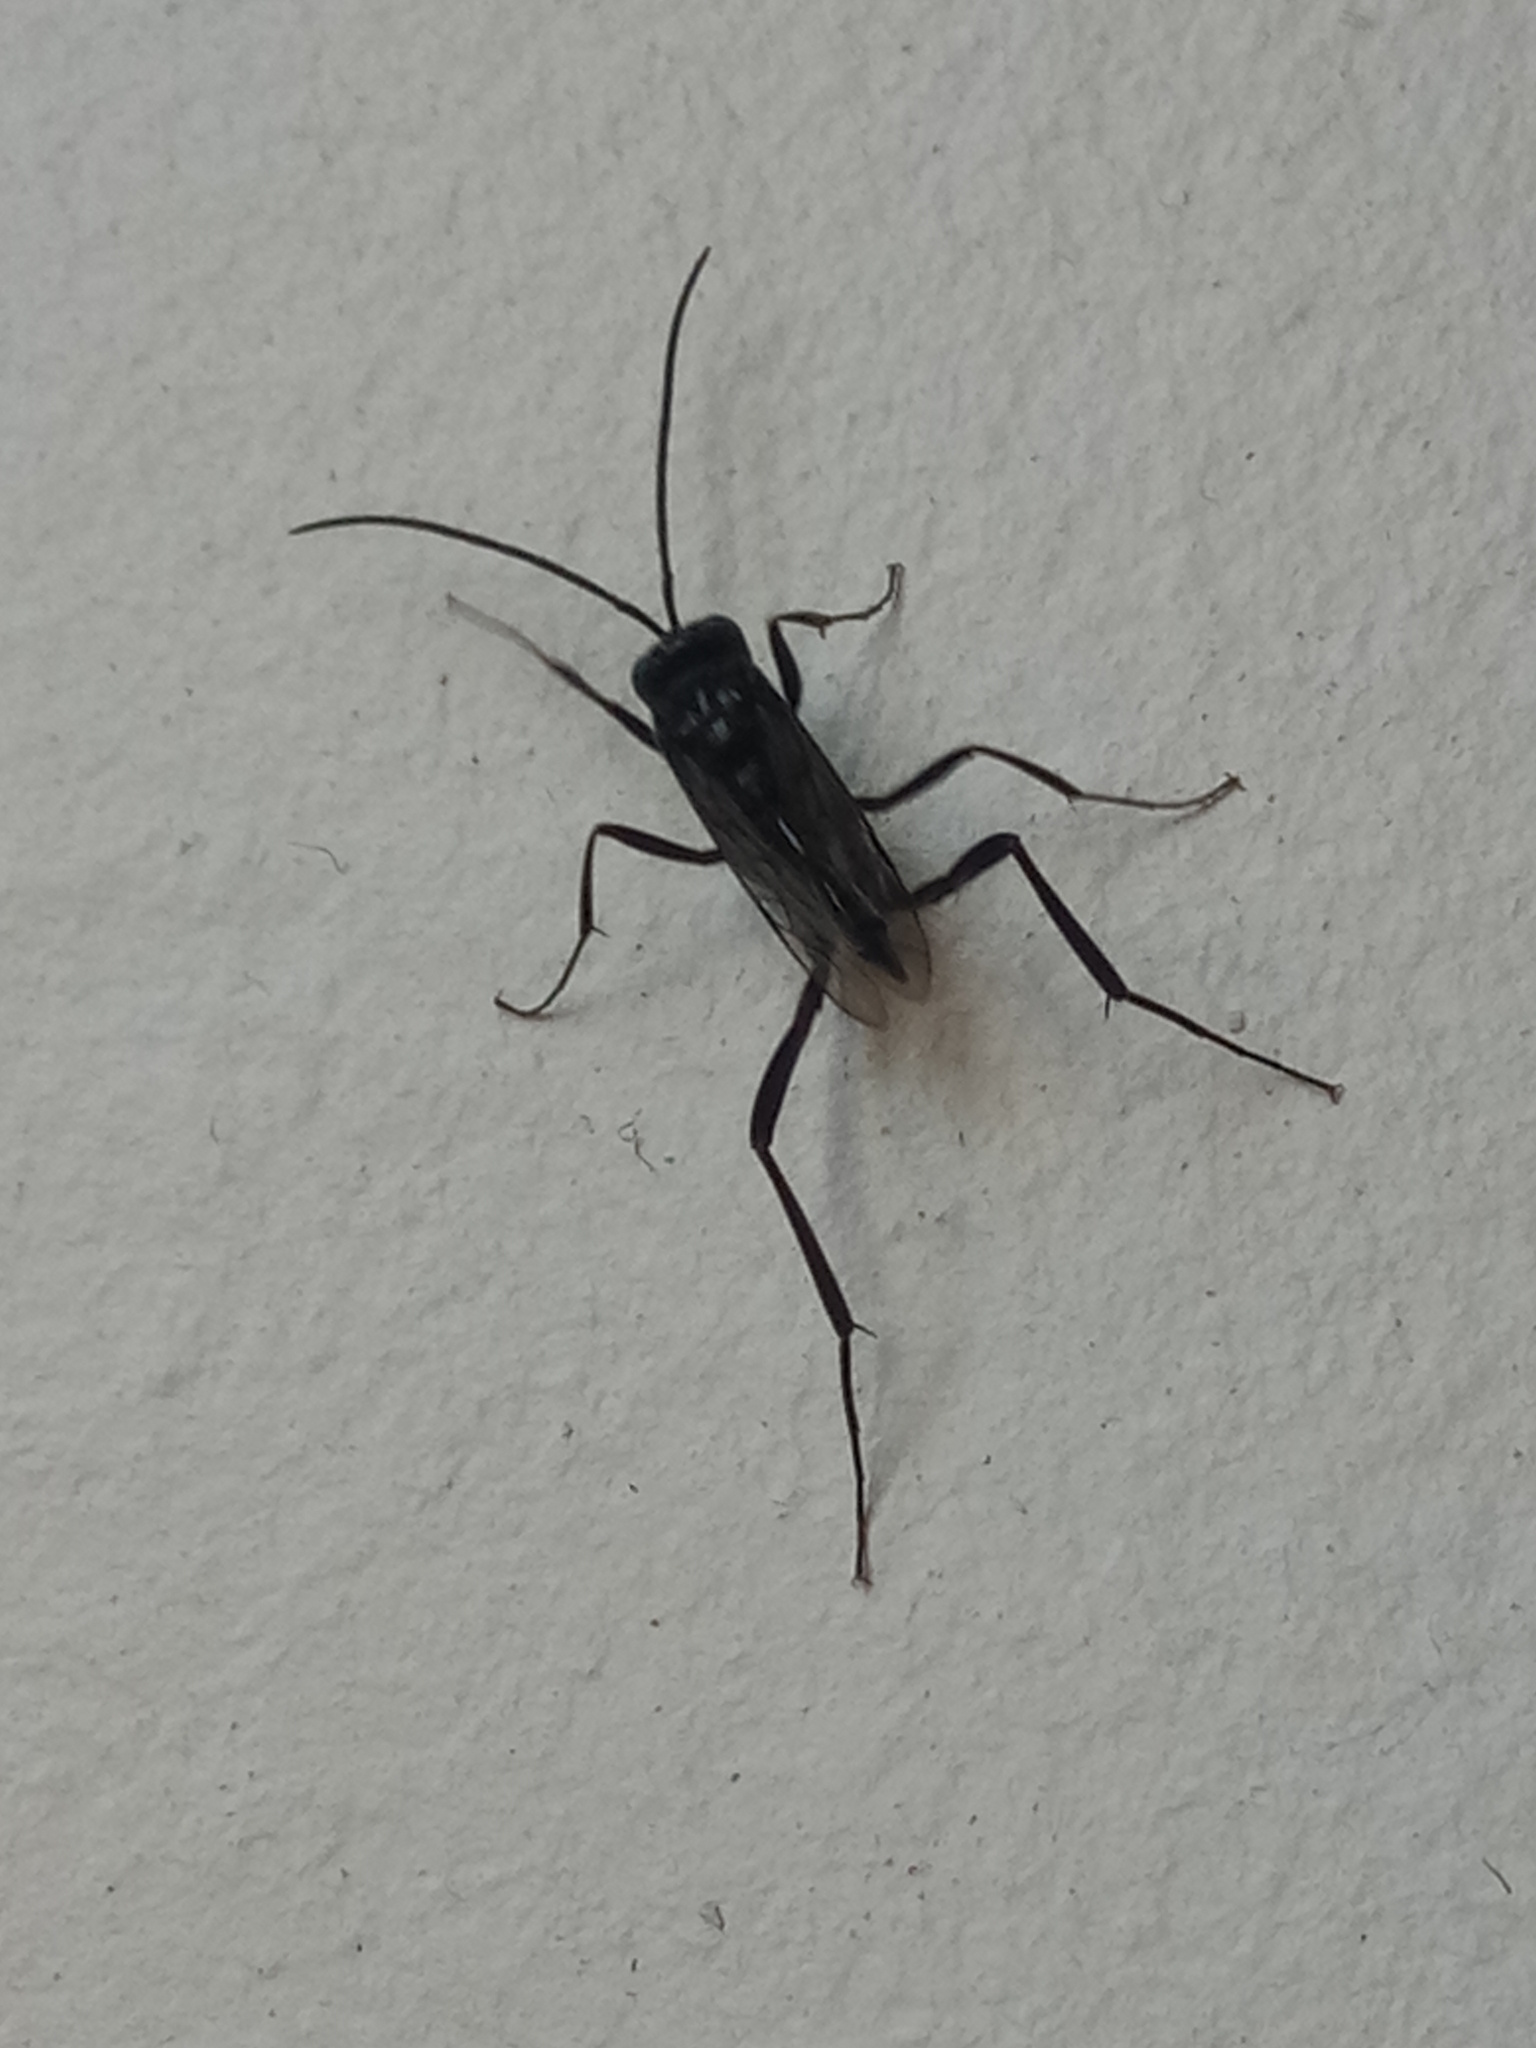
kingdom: Animalia
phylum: Arthropoda
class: Insecta
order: Hymenoptera
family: Evaniidae
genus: Evania
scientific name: Evania appendigaster
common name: Ensign wasp
